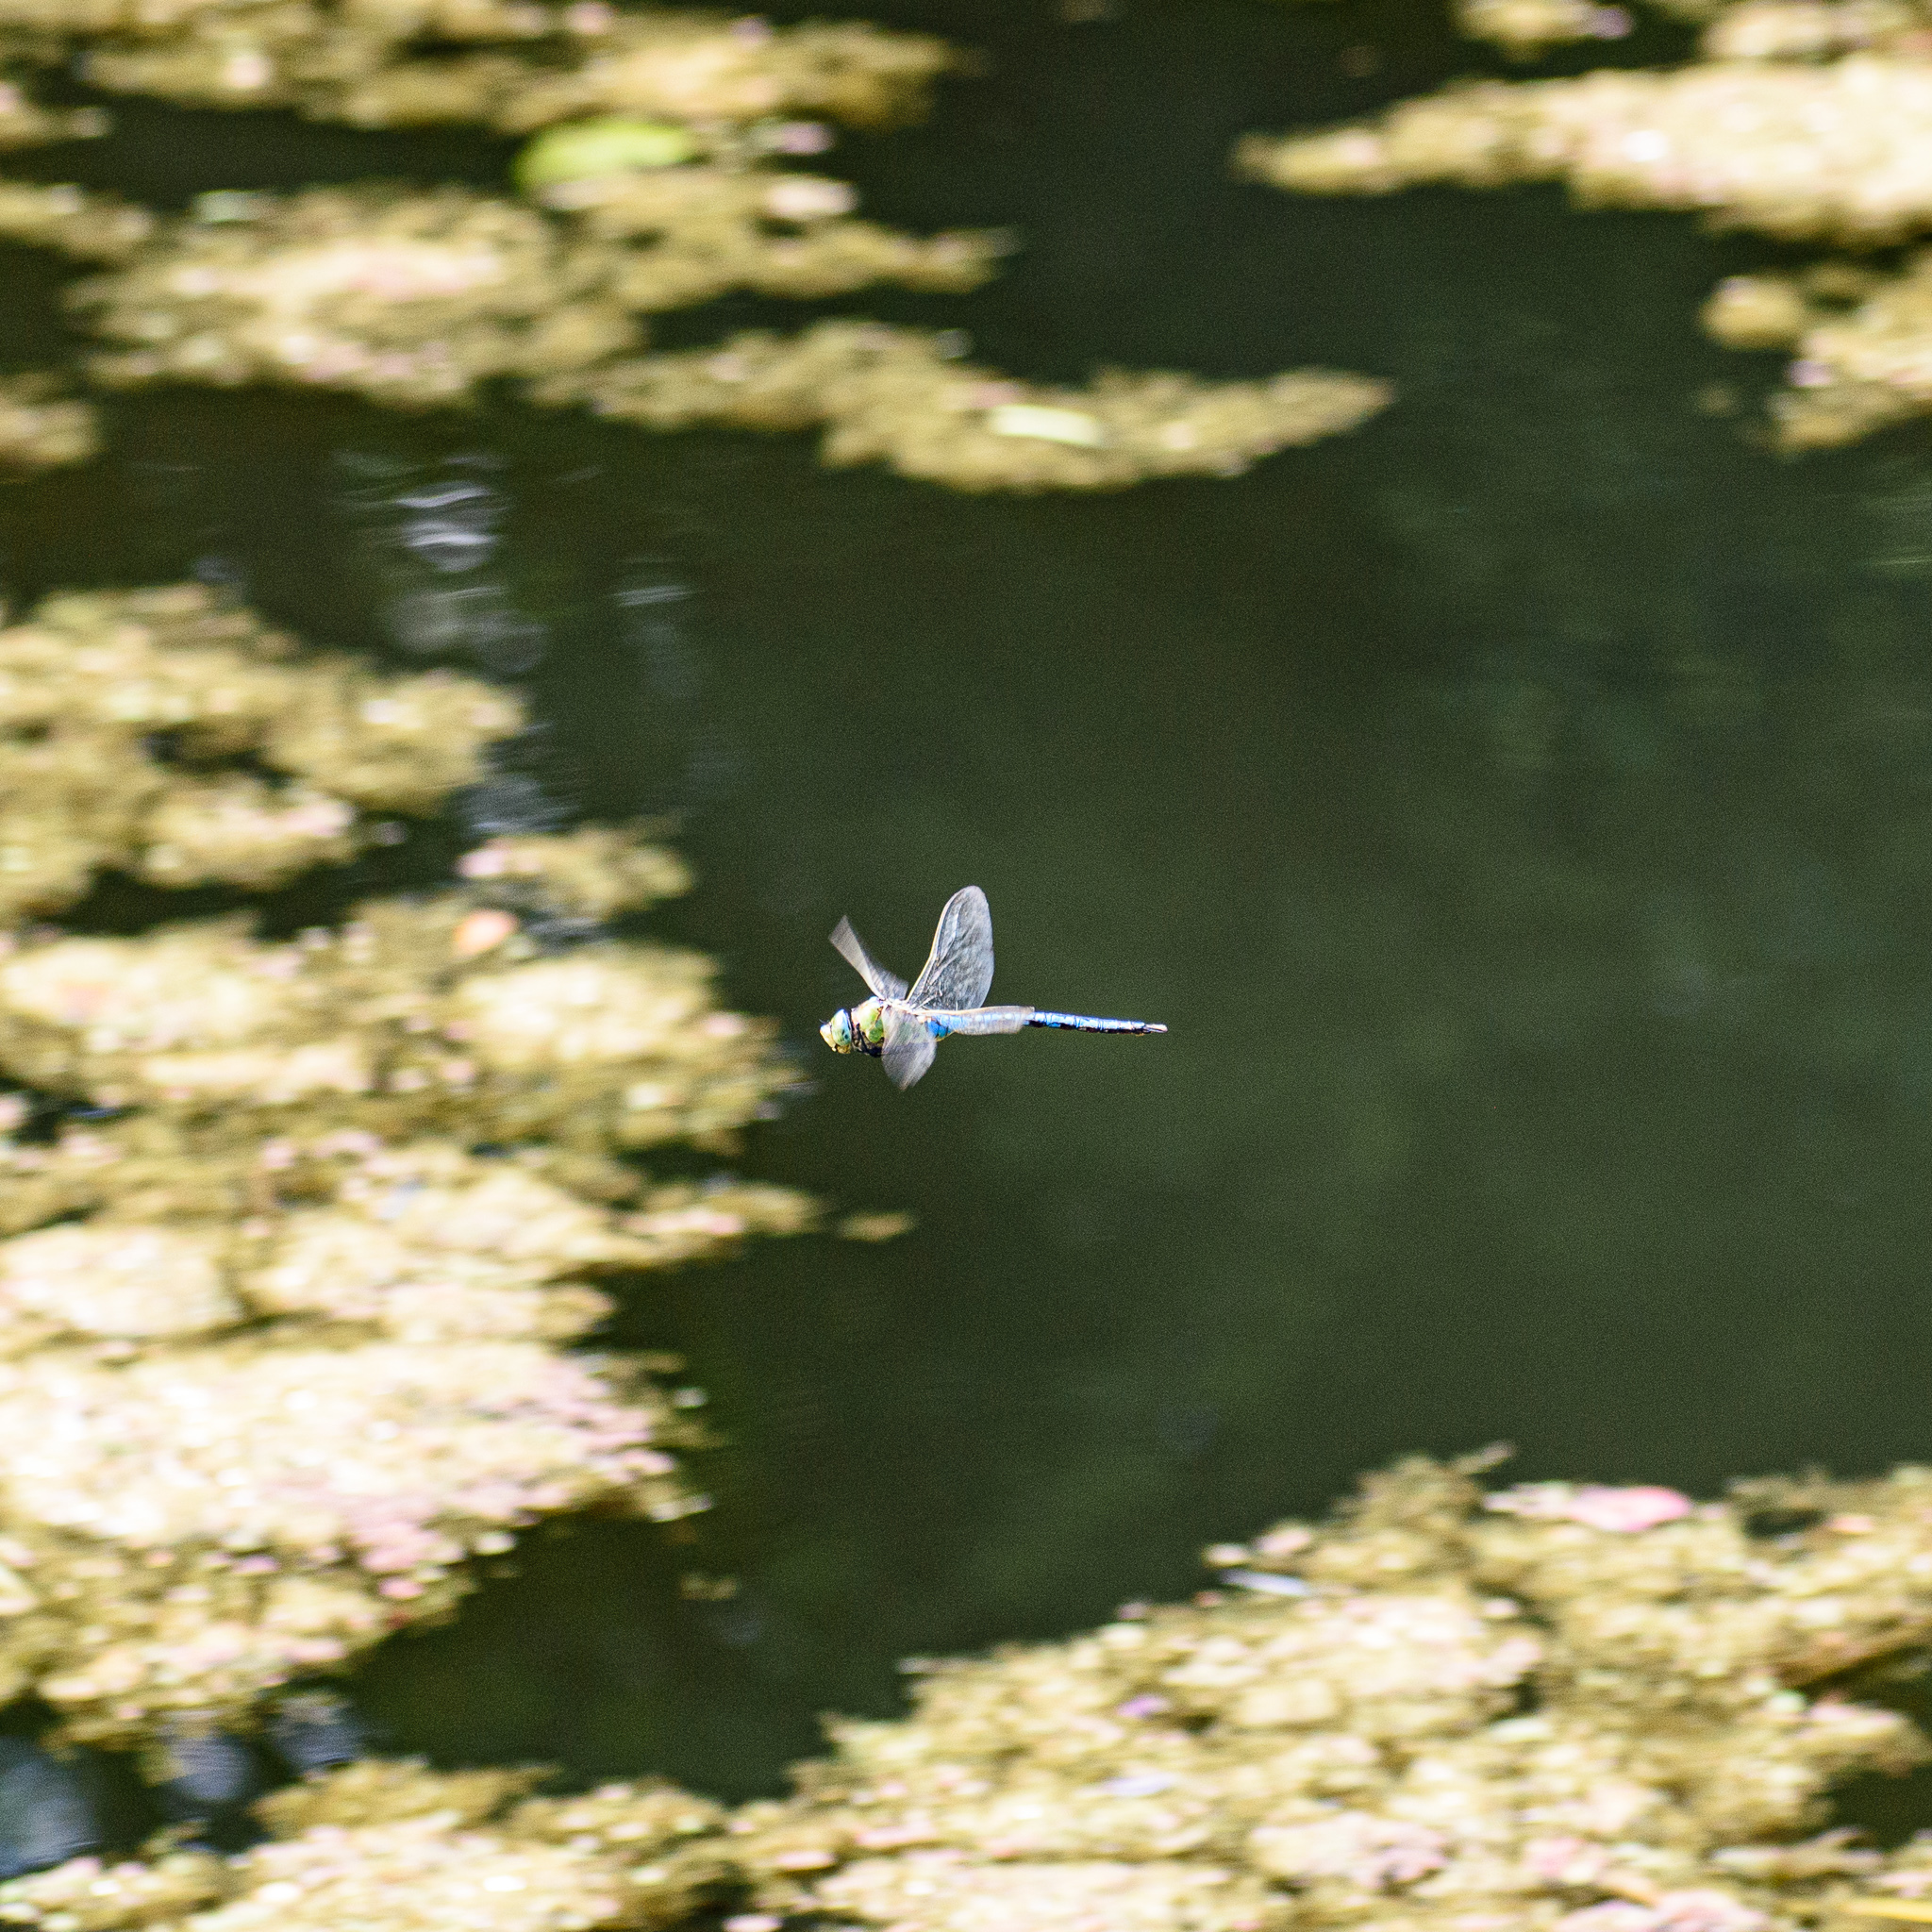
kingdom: Animalia
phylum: Arthropoda
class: Insecta
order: Odonata
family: Aeshnidae
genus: Anax
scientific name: Anax imperator
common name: Emperor dragonfly
